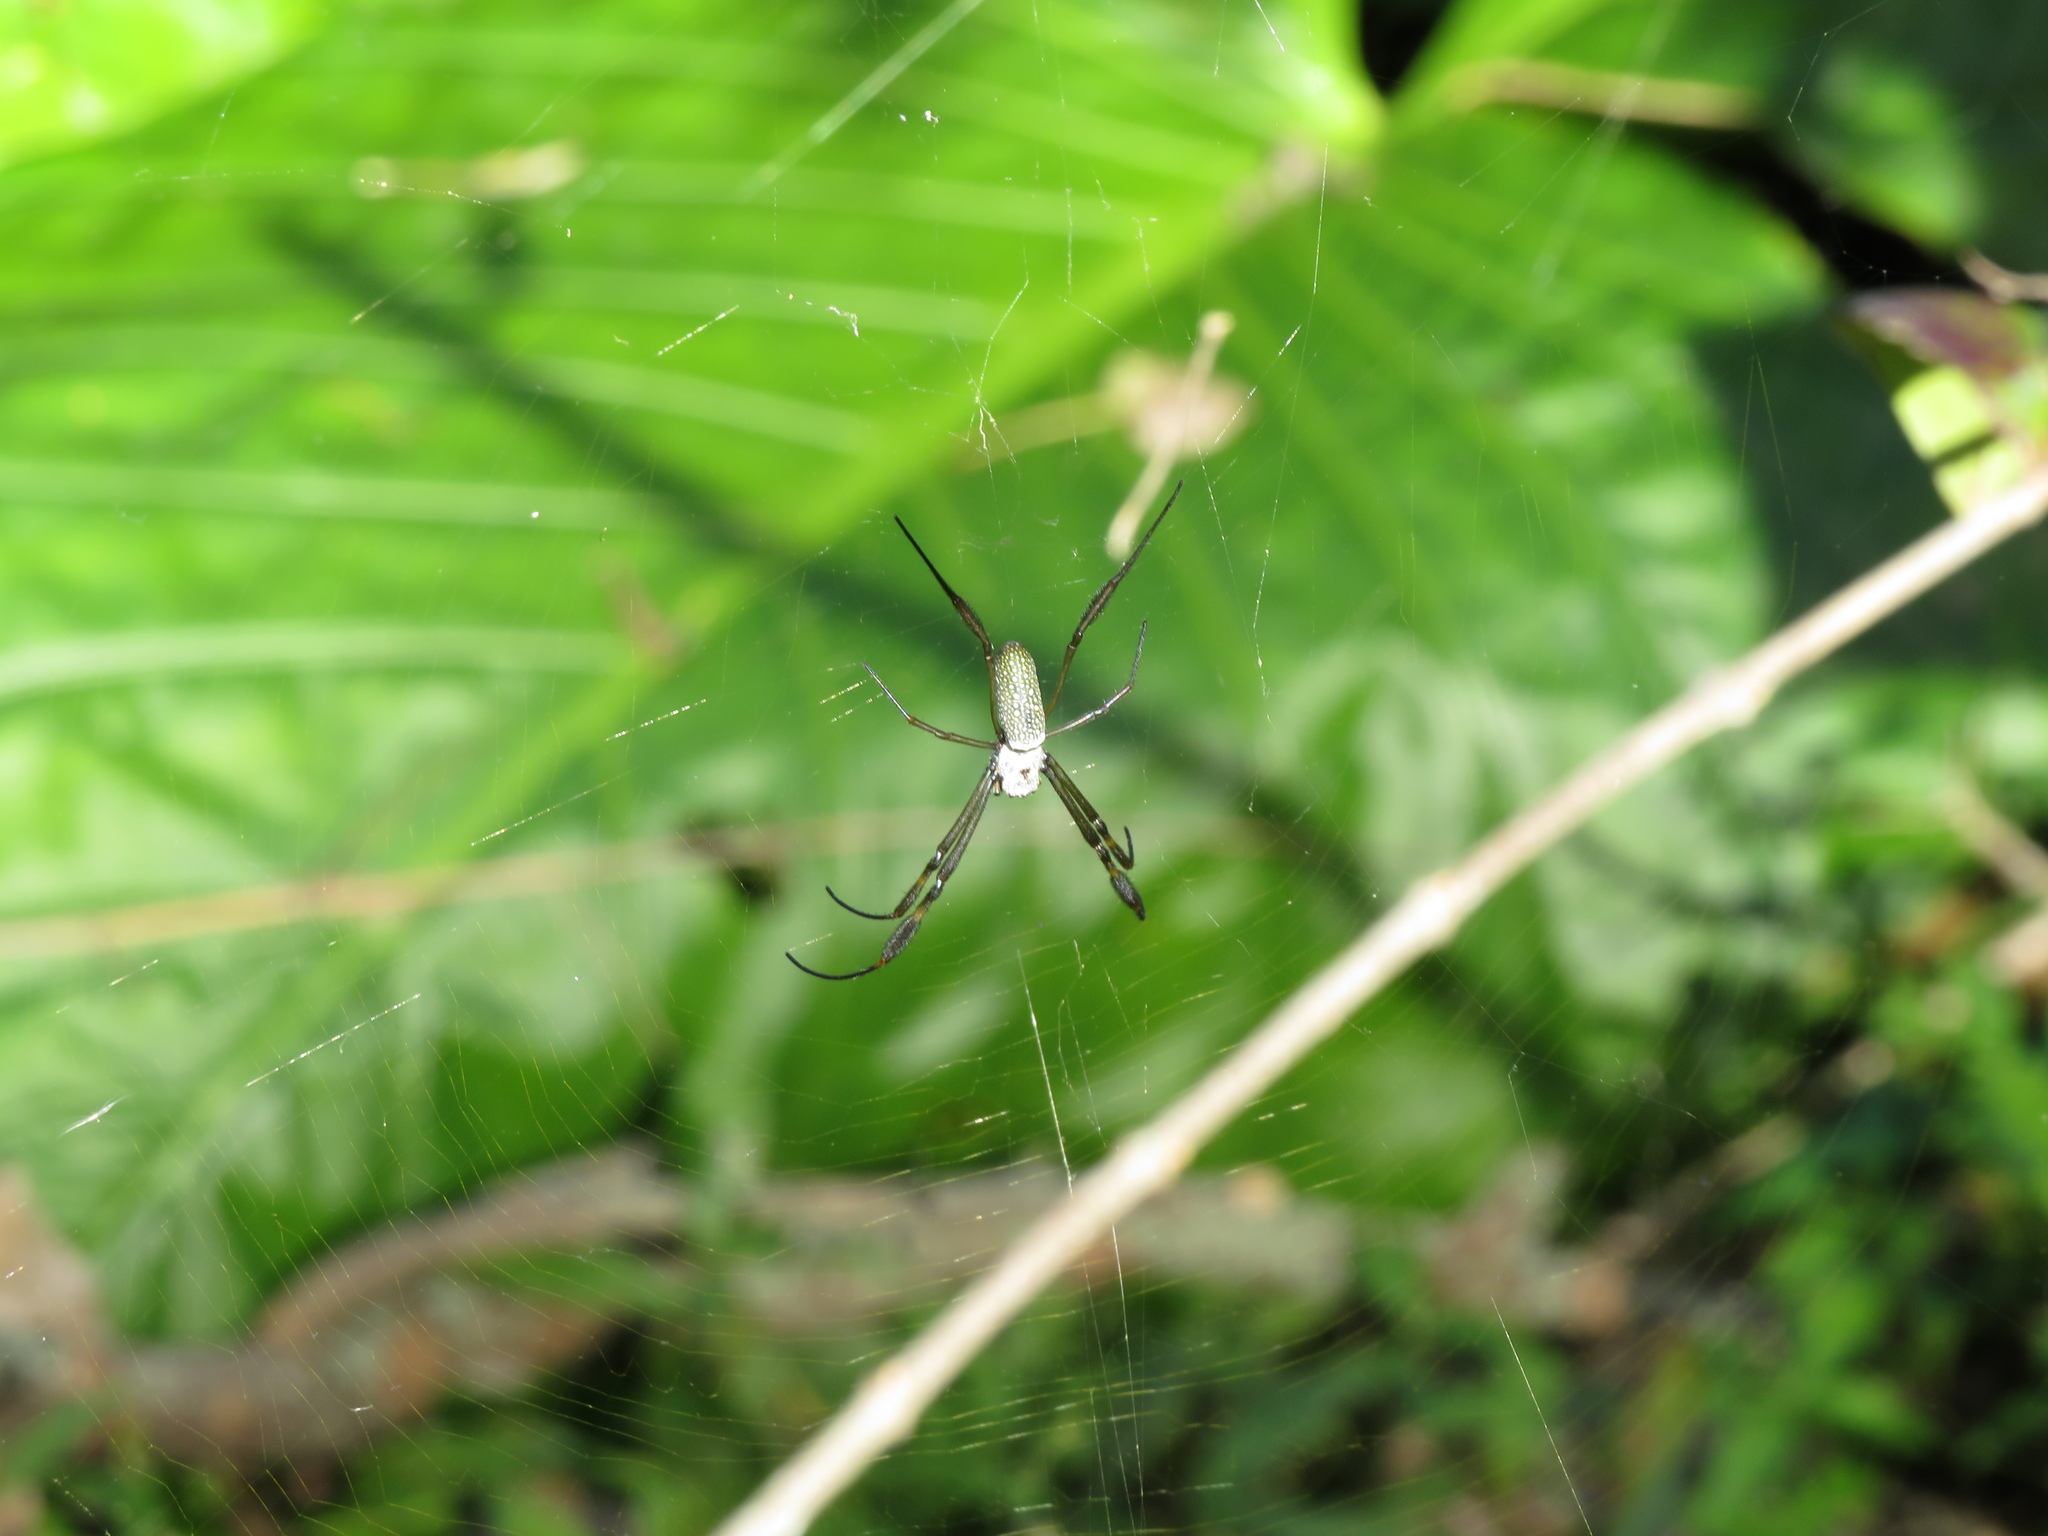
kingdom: Animalia
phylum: Arthropoda
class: Arachnida
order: Araneae
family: Araneidae
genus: Trichonephila
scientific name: Trichonephila clavipes
